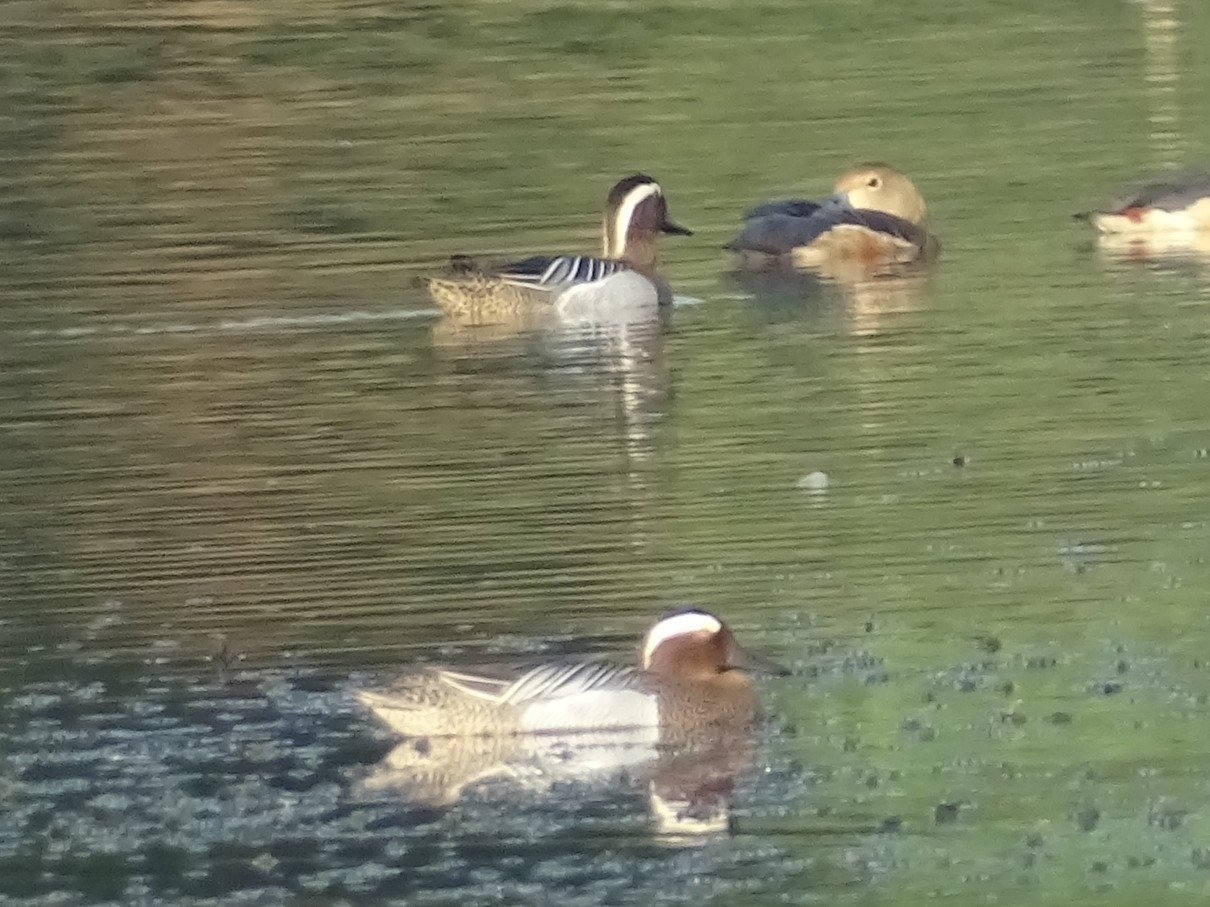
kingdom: Animalia
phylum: Chordata
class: Aves
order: Anseriformes
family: Anatidae
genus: Spatula
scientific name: Spatula querquedula
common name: Garganey
